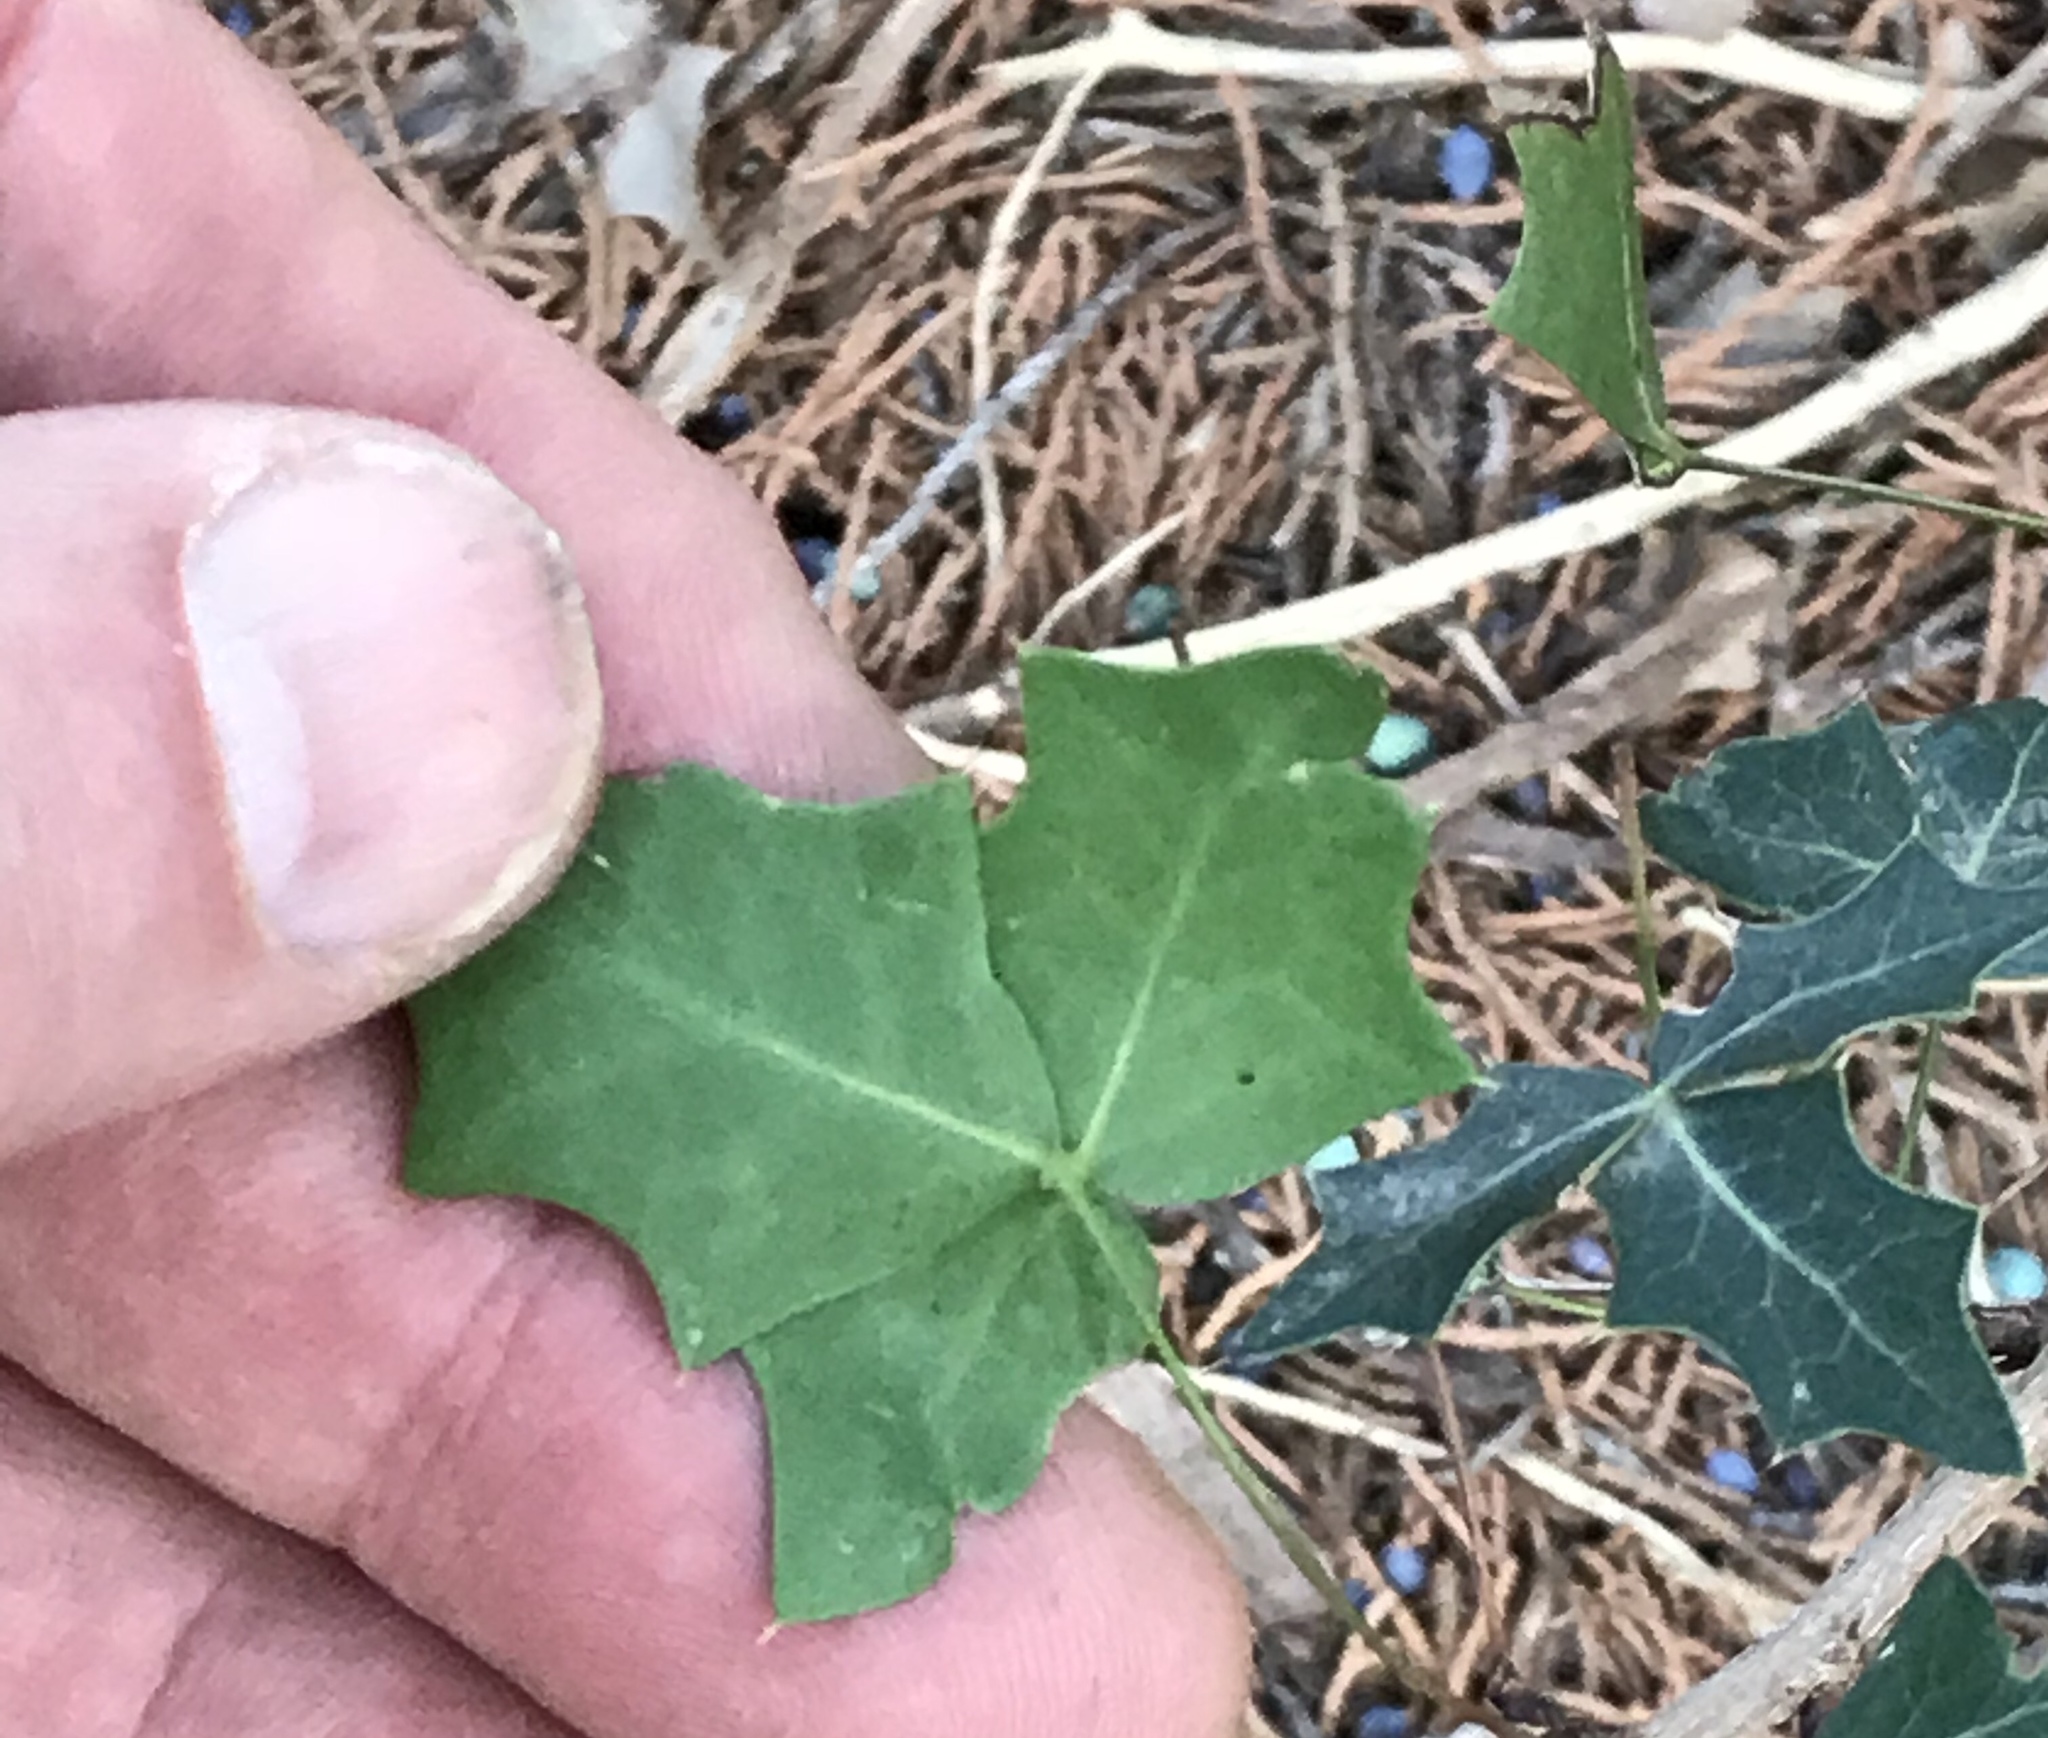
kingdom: Plantae
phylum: Tracheophyta
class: Magnoliopsida
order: Ranunculales
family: Berberidaceae
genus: Alloberberis
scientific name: Alloberberis trifoliolata
